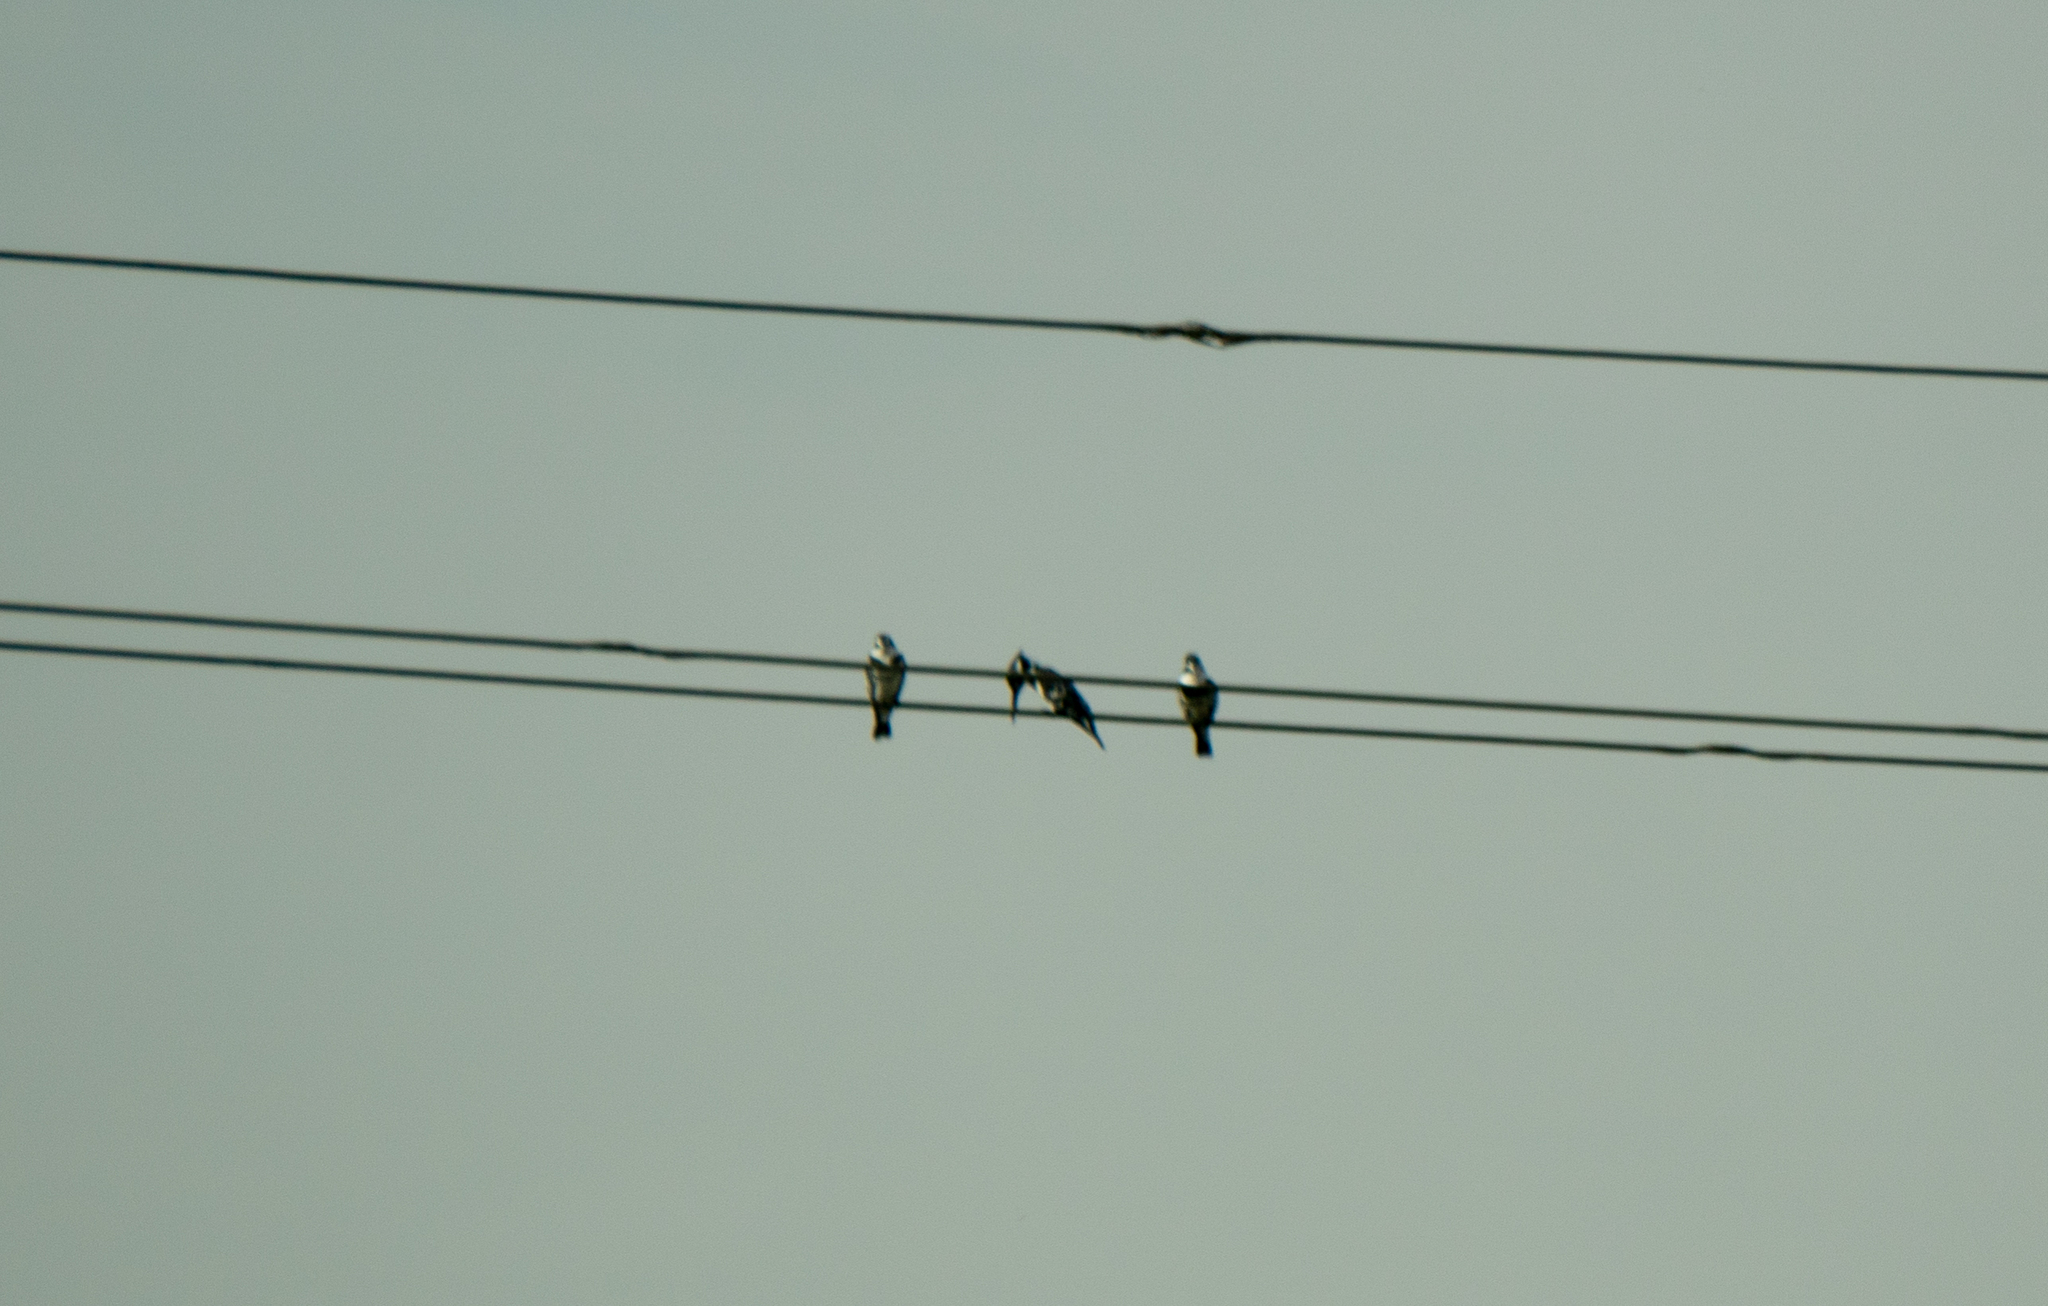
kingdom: Animalia
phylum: Chordata
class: Aves
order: Coraciiformes
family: Alcedinidae
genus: Ceryle
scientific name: Ceryle rudis
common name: Pied kingfisher
